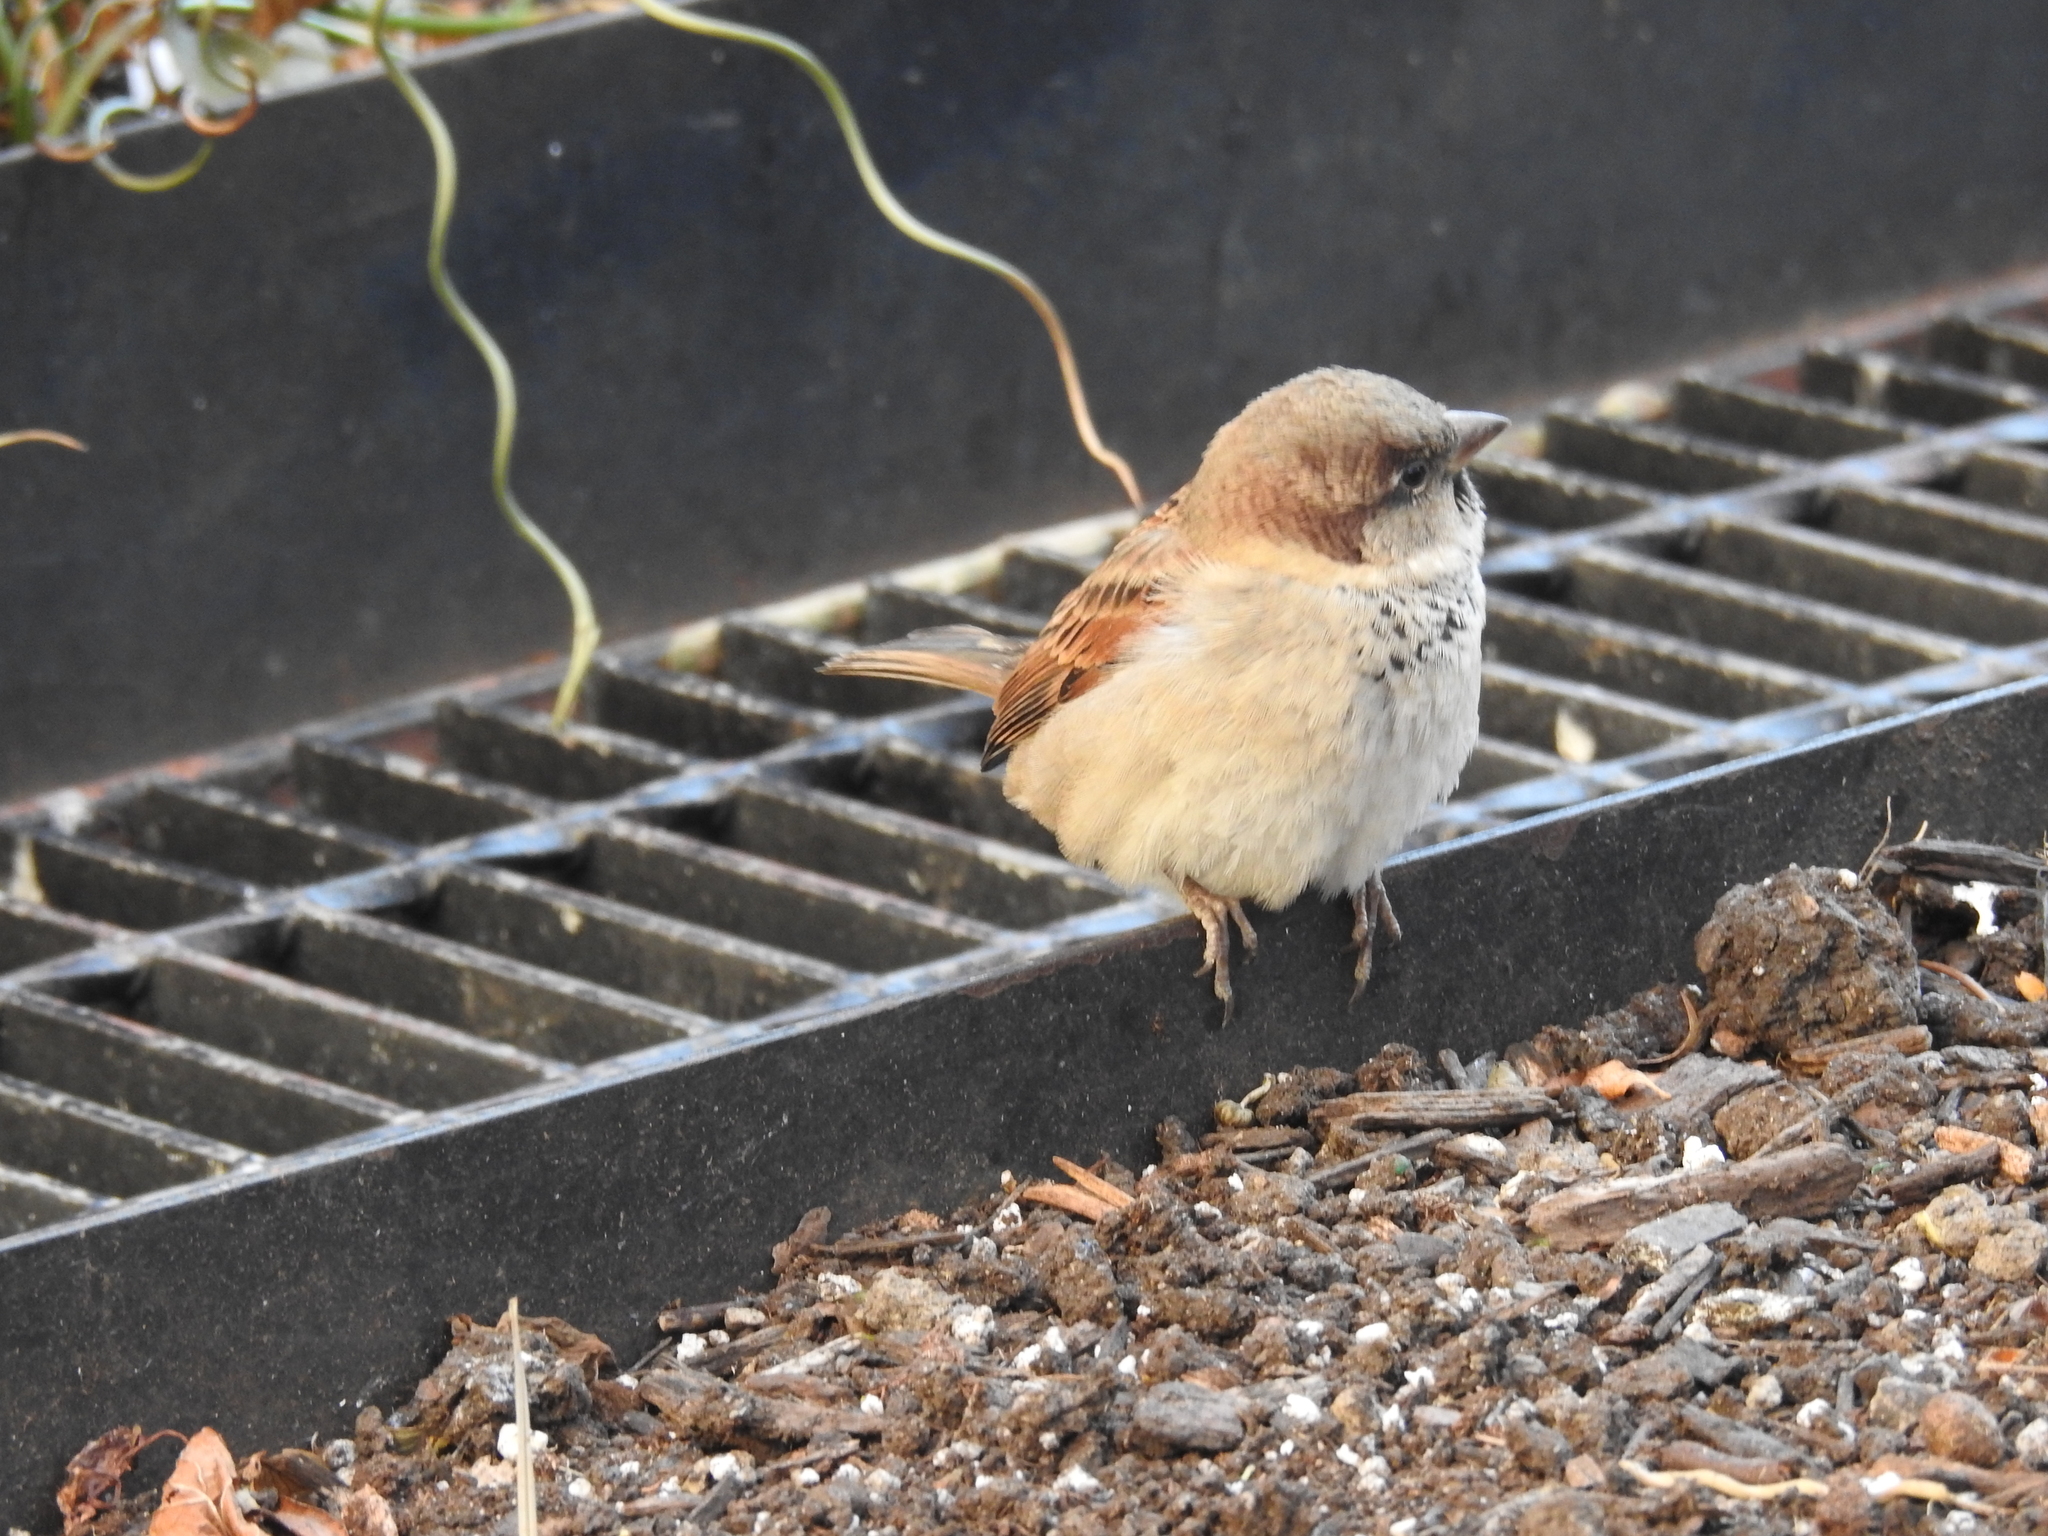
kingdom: Animalia
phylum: Chordata
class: Aves
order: Passeriformes
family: Passeridae
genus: Passer
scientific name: Passer domesticus
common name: House sparrow
